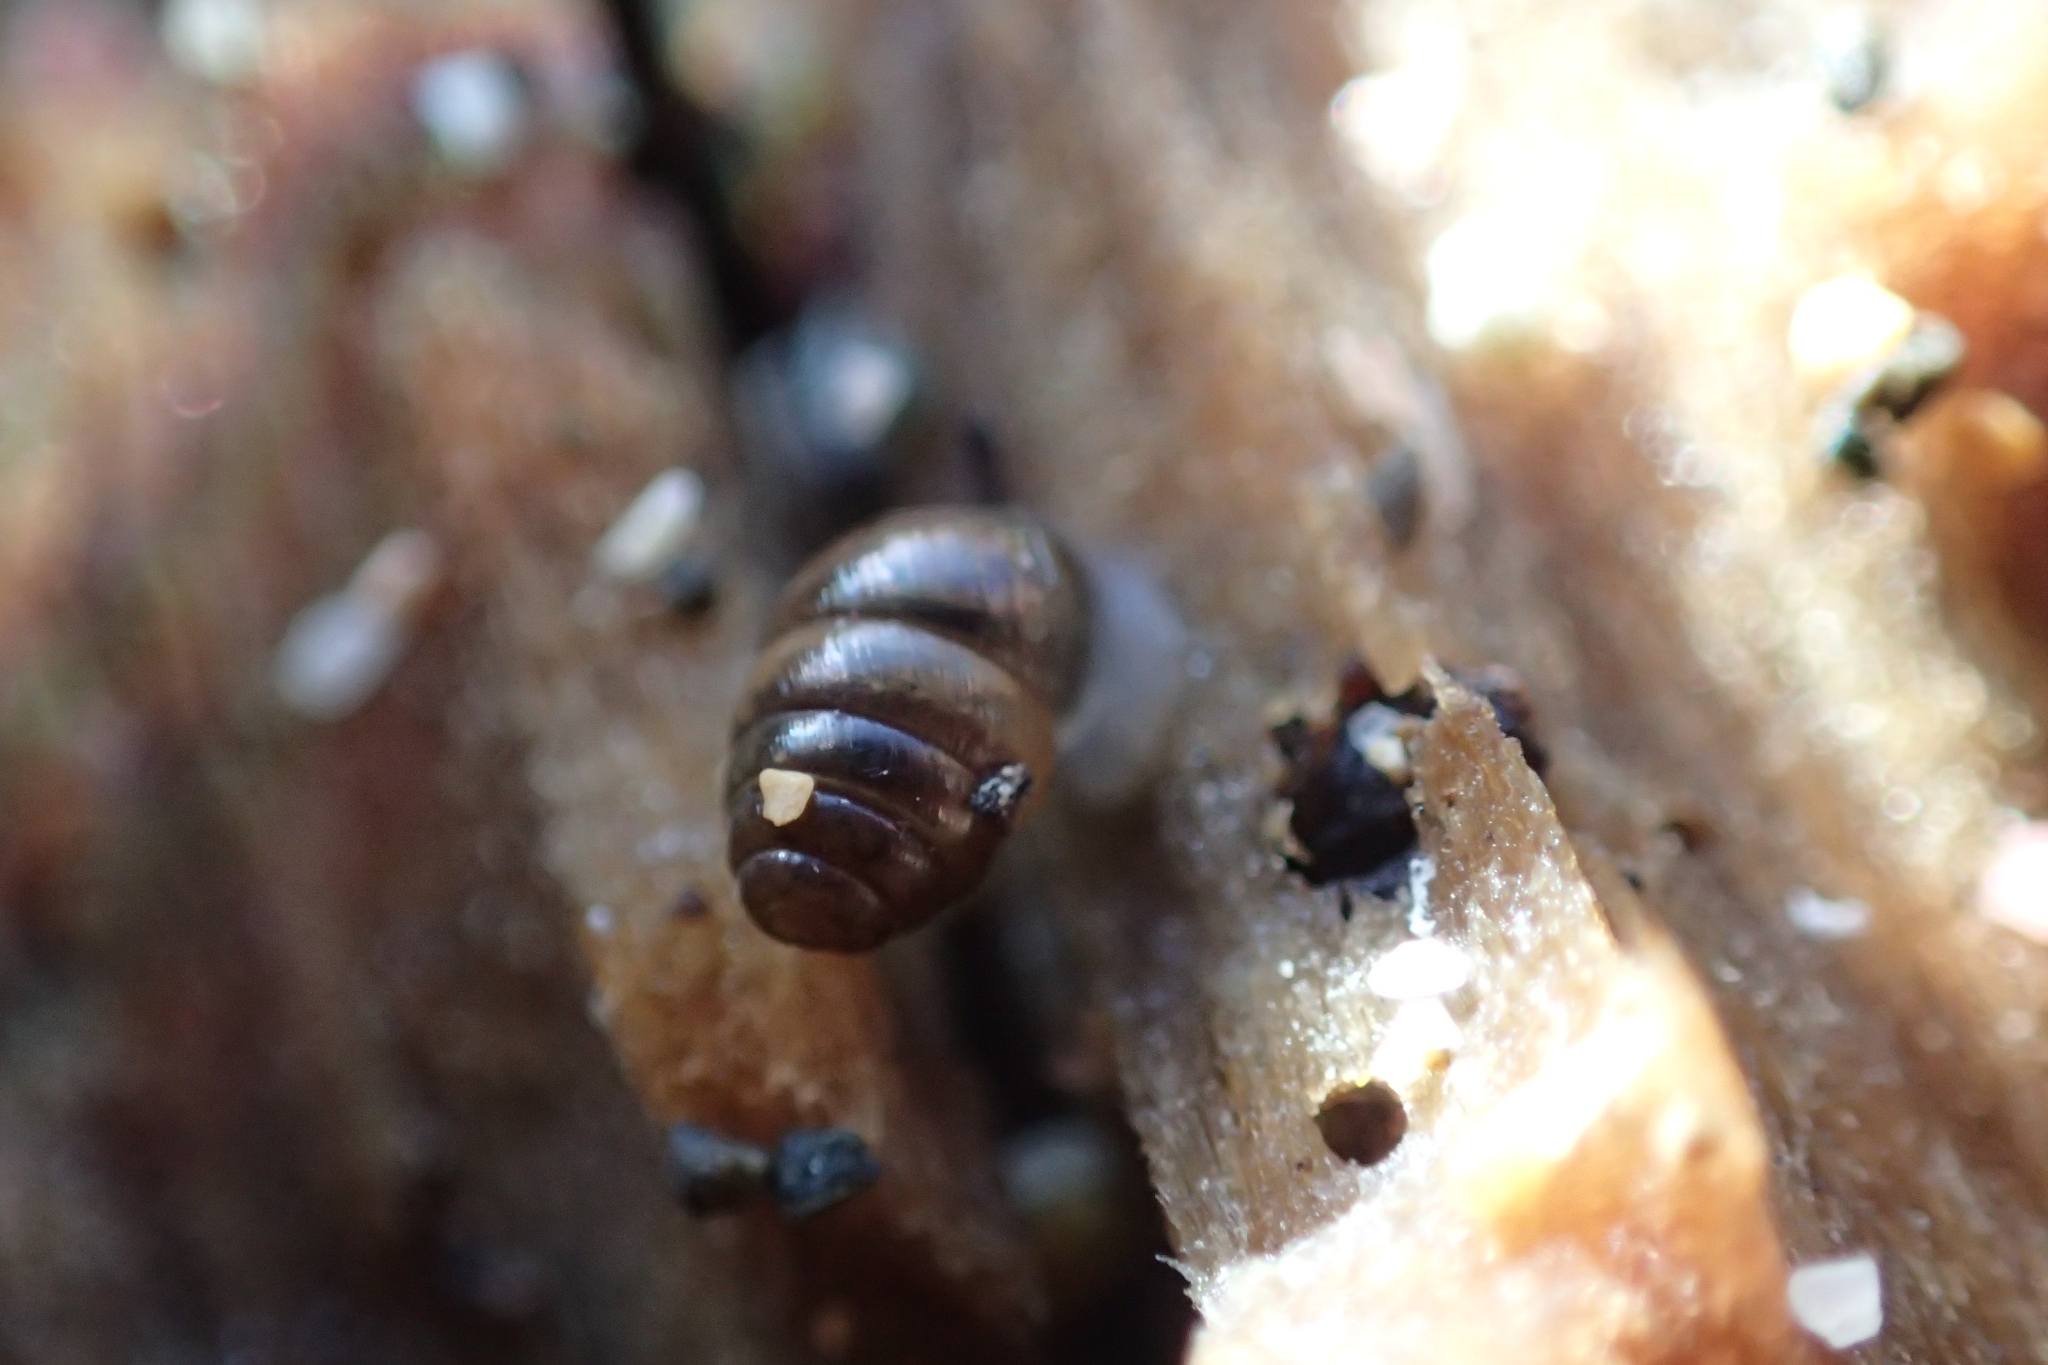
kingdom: Animalia
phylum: Mollusca
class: Gastropoda
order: Stylommatophora
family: Lauriidae
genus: Lauria
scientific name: Lauria cylindracea
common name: Common chrysalis snail
